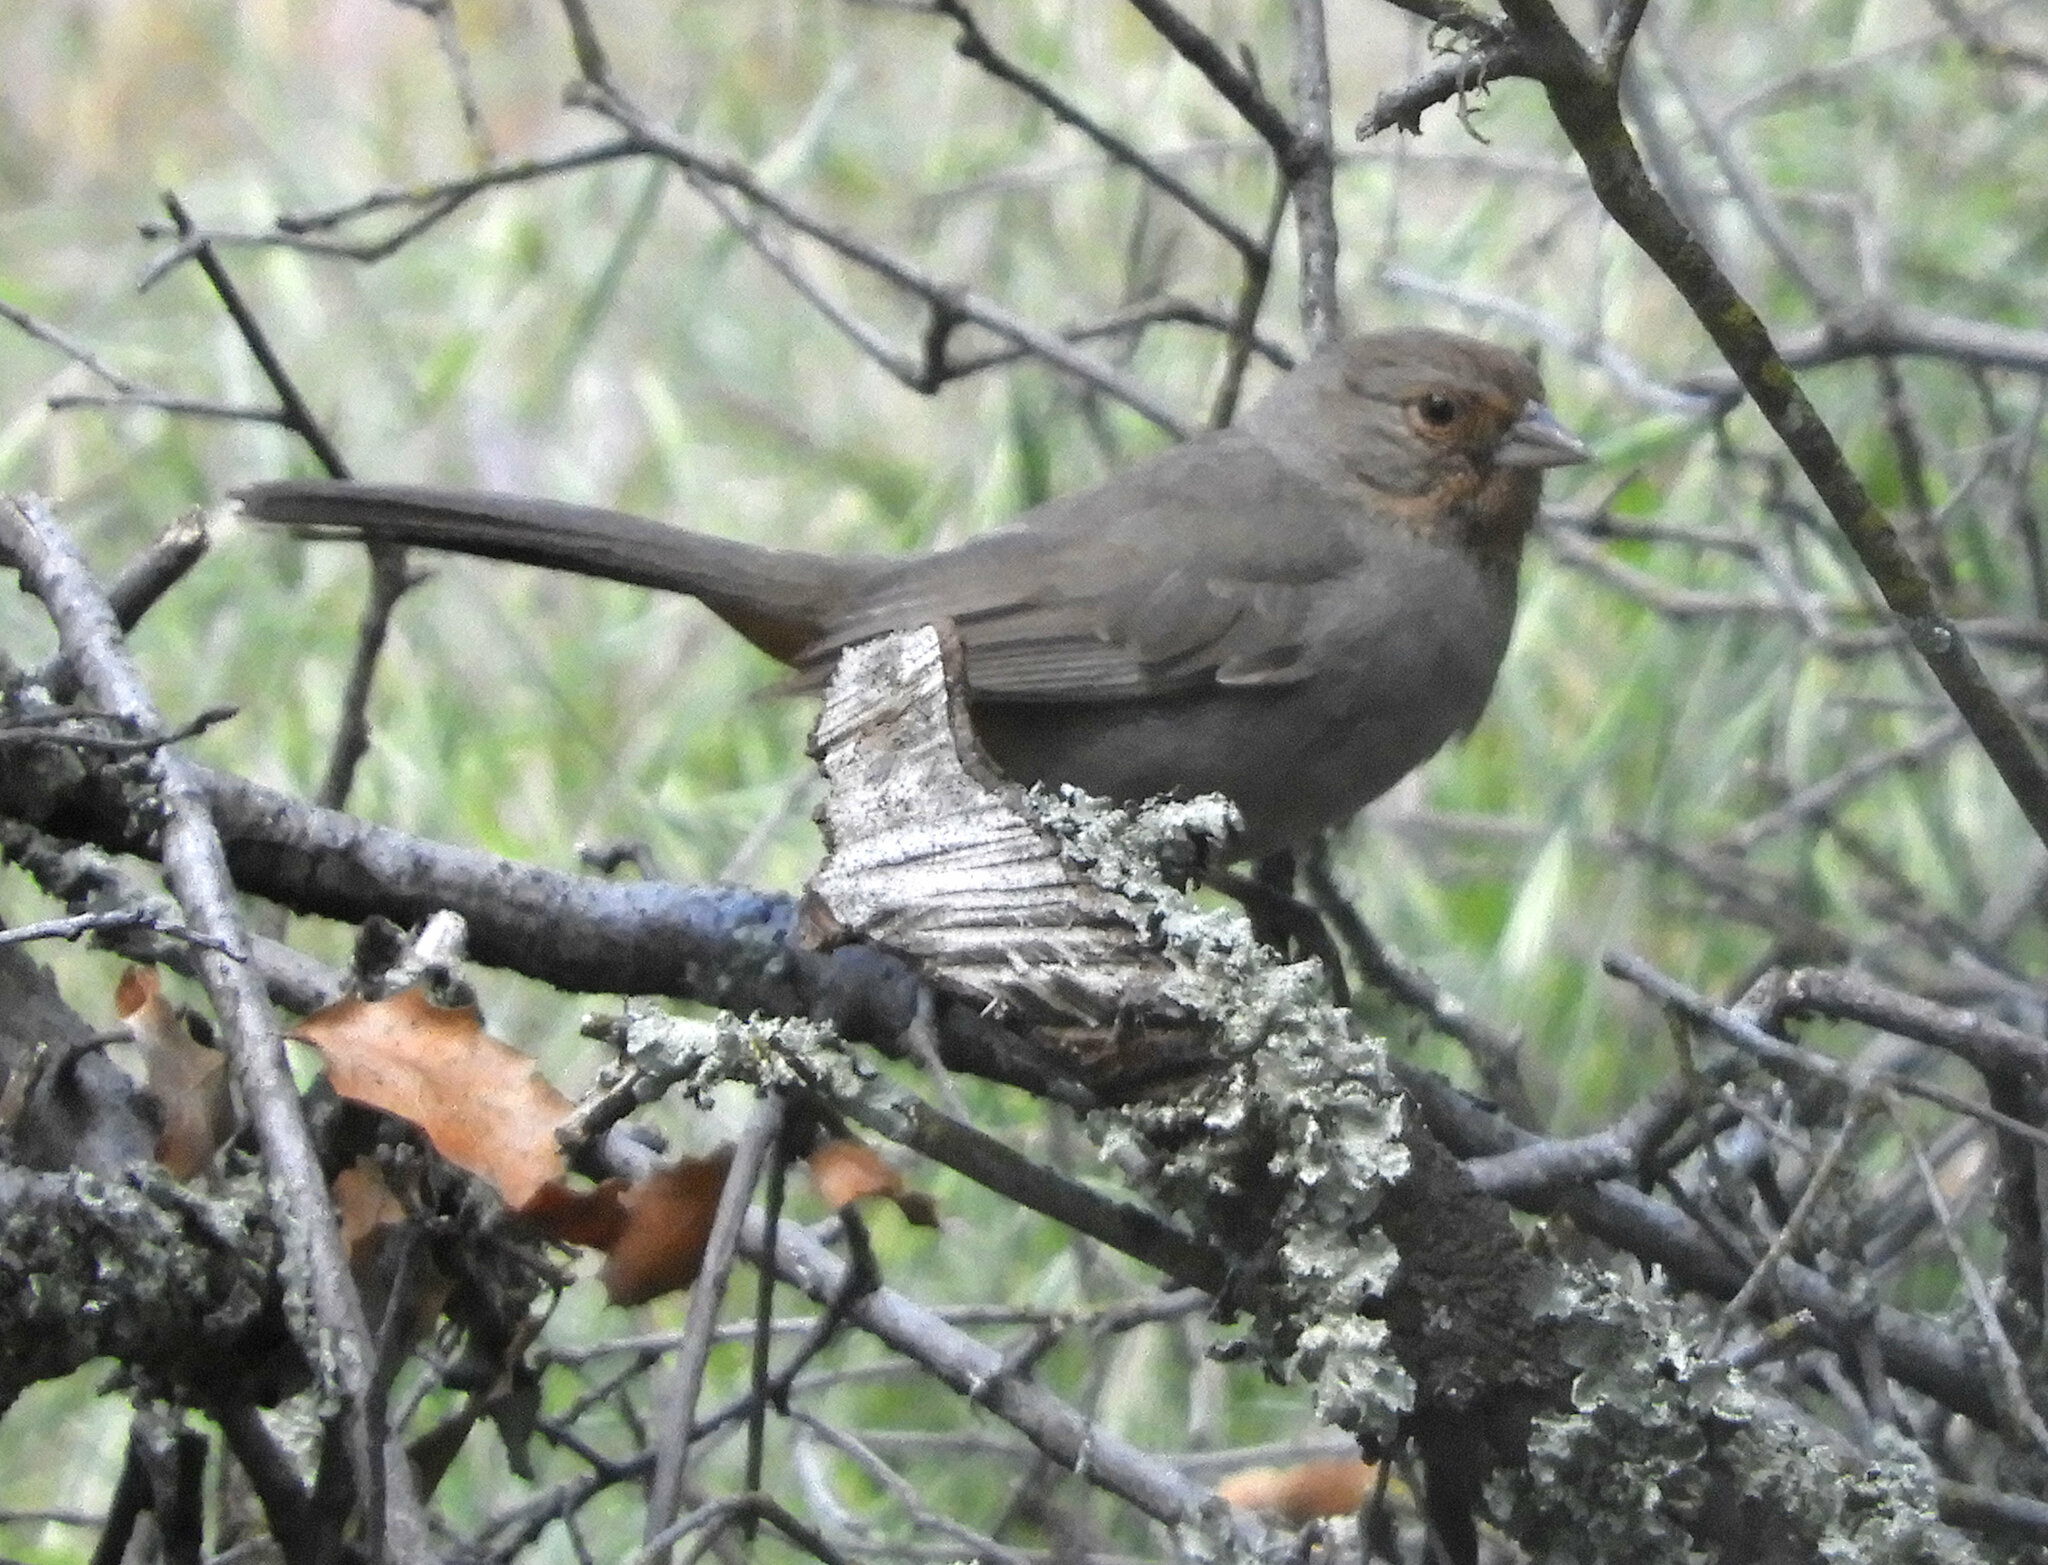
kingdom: Animalia
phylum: Chordata
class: Aves
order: Passeriformes
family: Passerellidae
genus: Melozone
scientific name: Melozone crissalis
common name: California towhee
